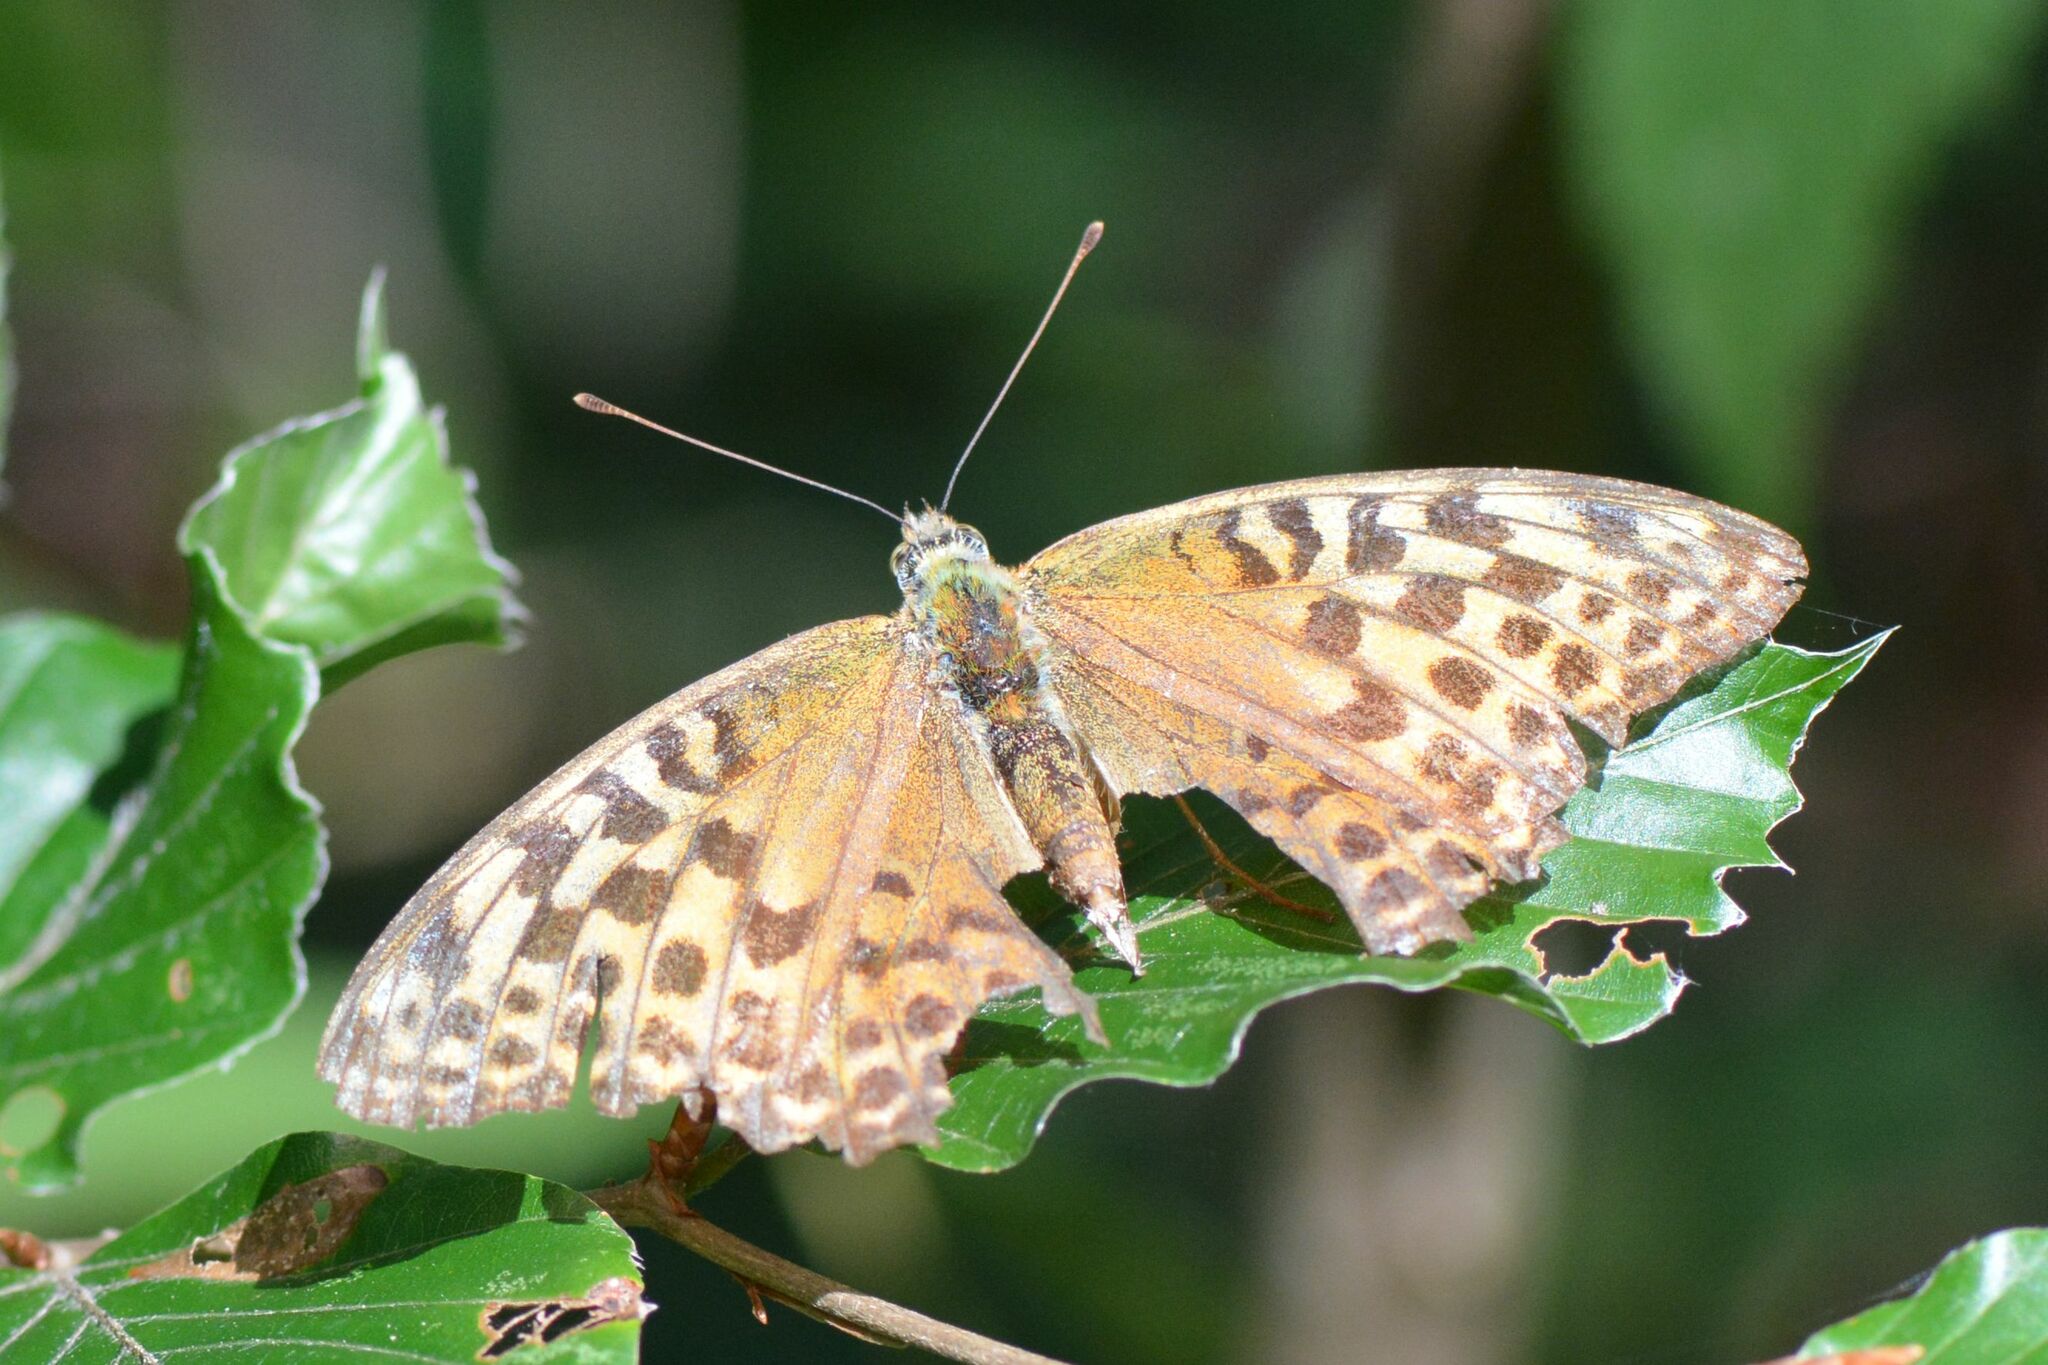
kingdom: Animalia
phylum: Arthropoda
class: Insecta
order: Lepidoptera
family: Nymphalidae
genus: Argynnis
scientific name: Argynnis paphia
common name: Silver-washed fritillary
